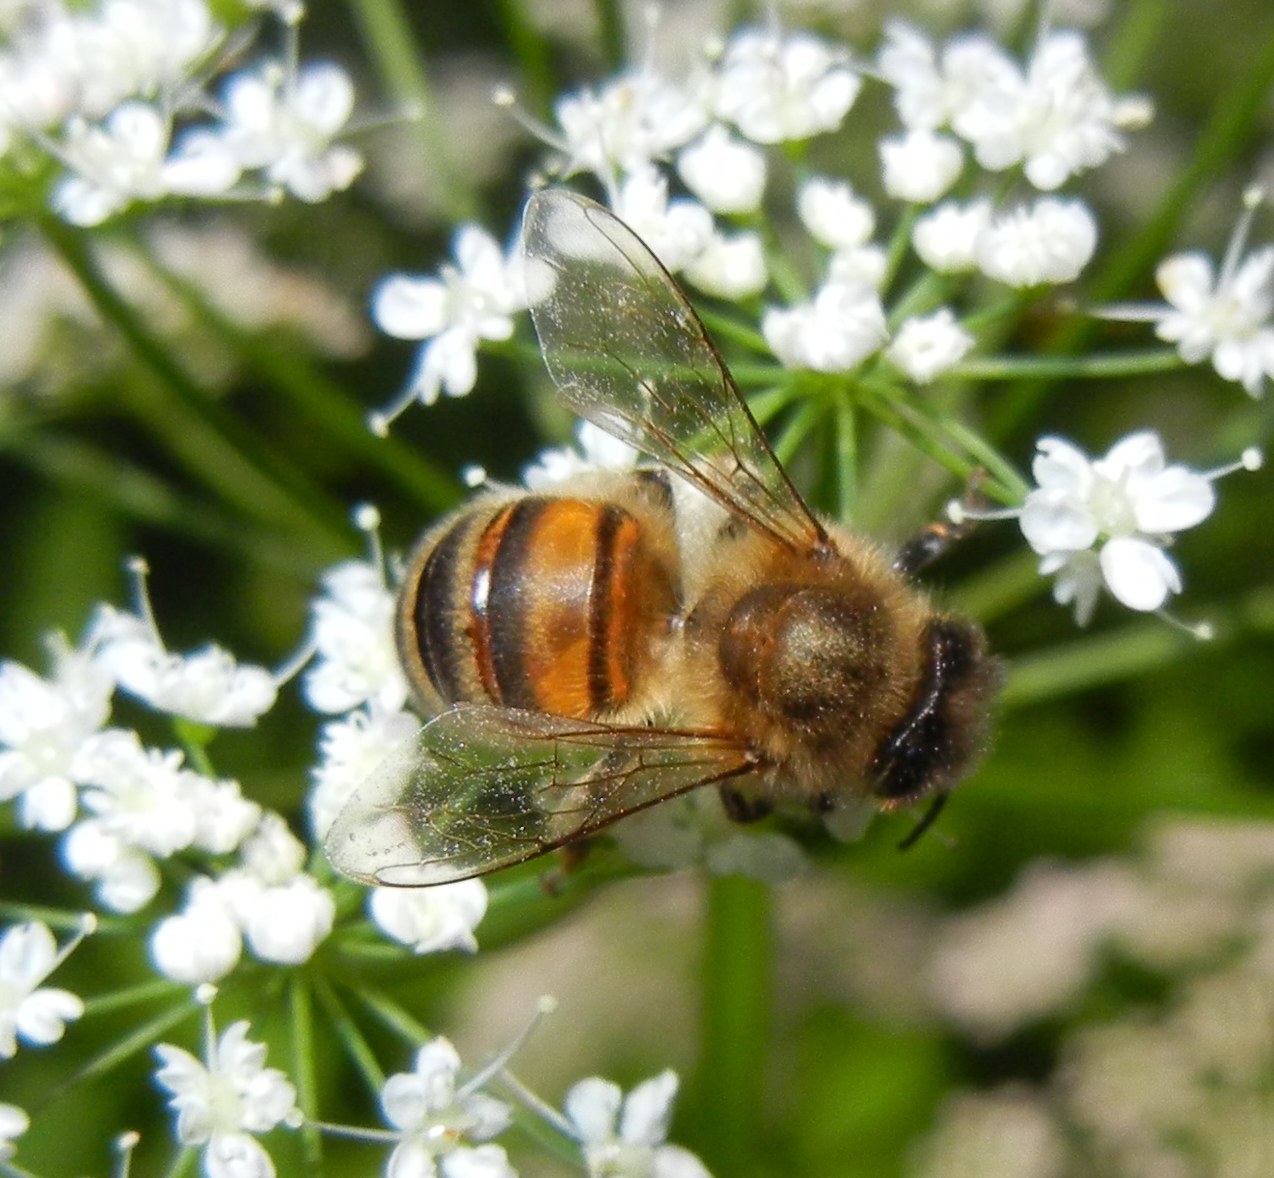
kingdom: Animalia
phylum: Arthropoda
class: Insecta
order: Hymenoptera
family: Apidae
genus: Apis
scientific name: Apis mellifera
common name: Honey bee
